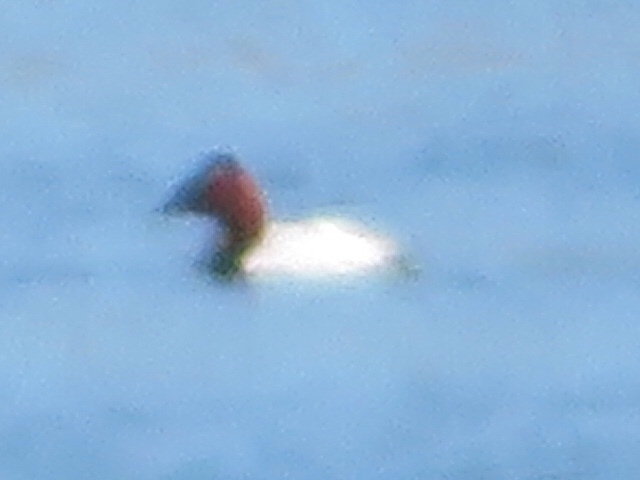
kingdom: Animalia
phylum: Chordata
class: Aves
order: Anseriformes
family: Anatidae
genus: Aythya
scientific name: Aythya valisineria
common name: Canvasback
